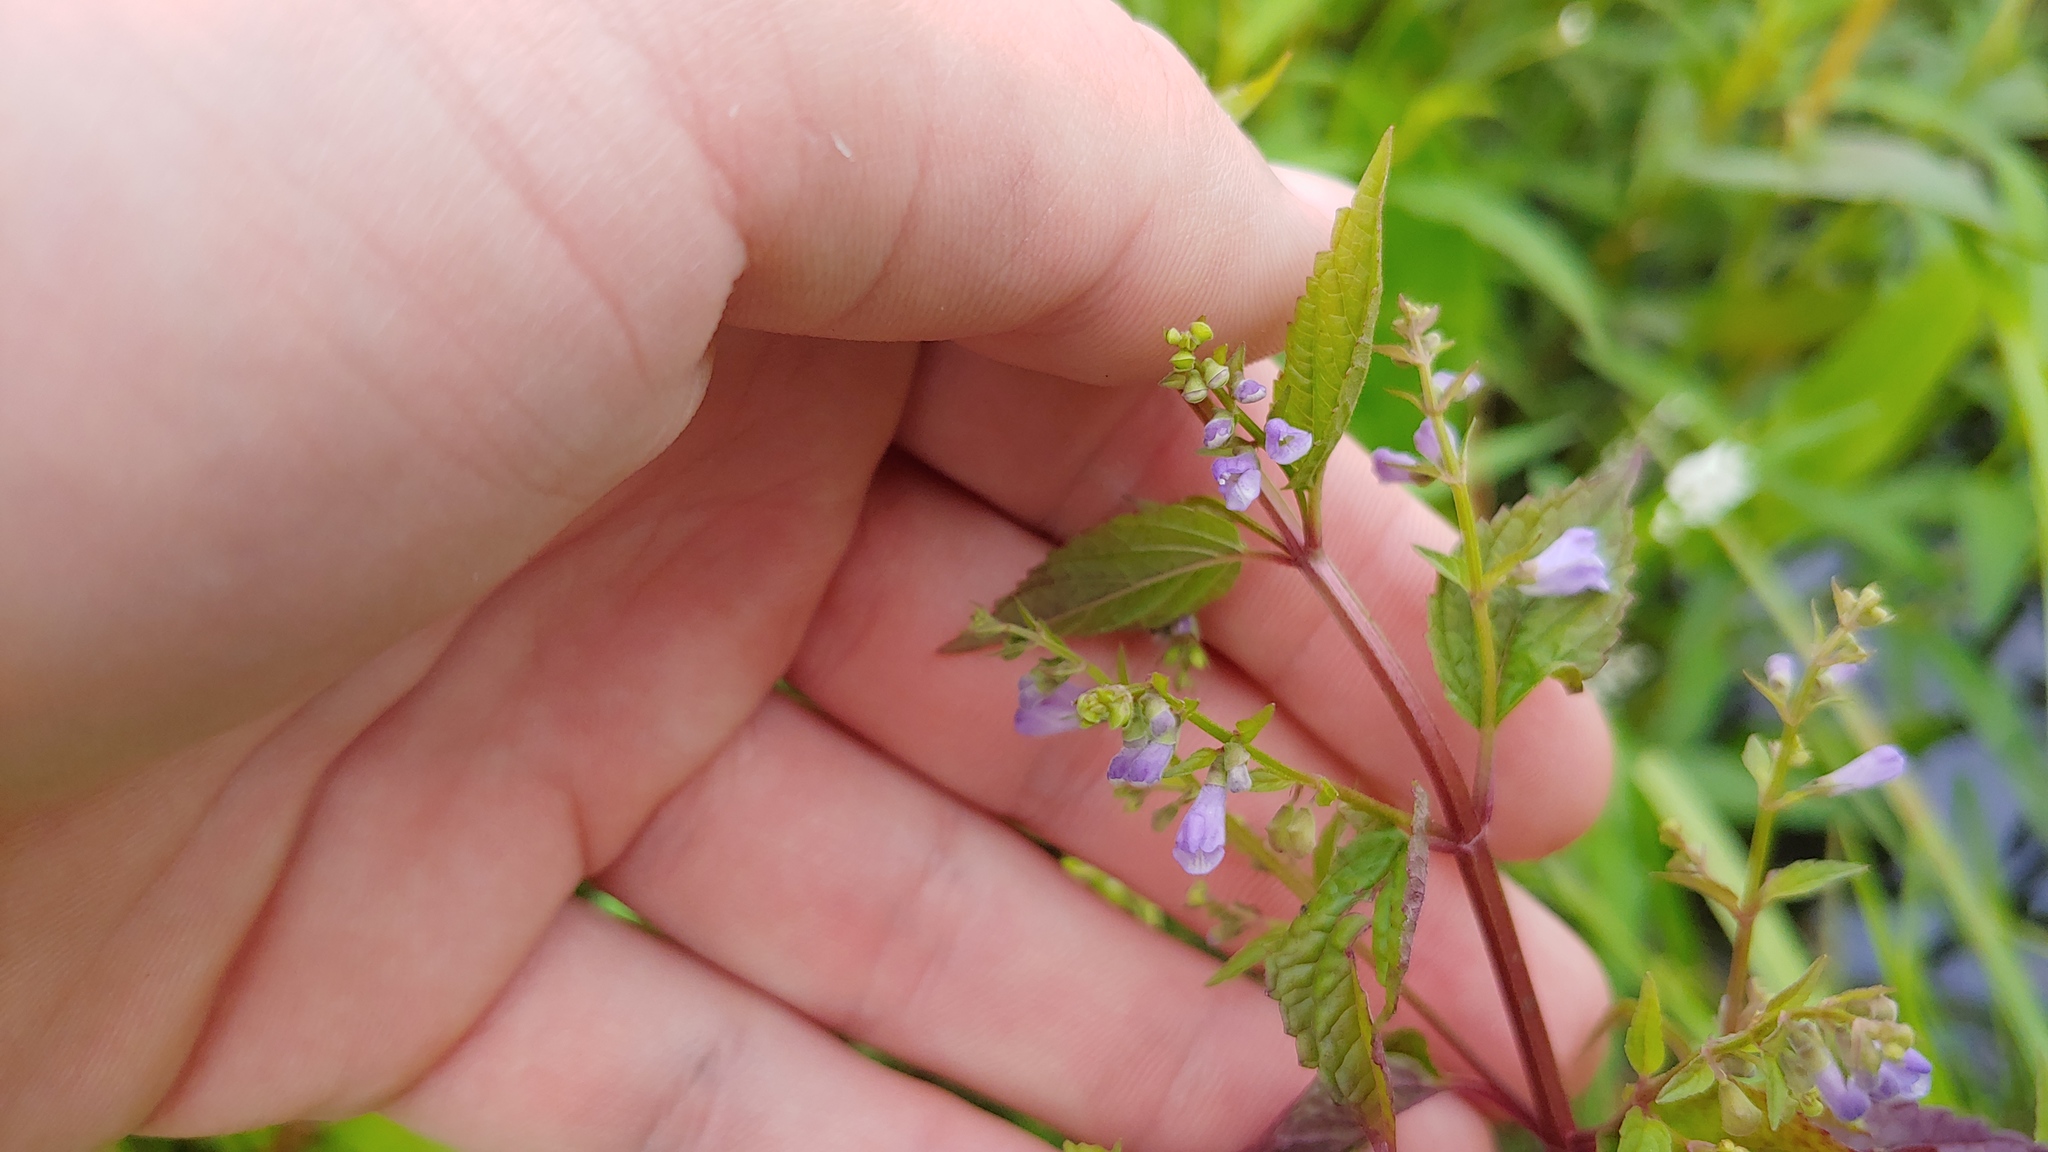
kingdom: Plantae
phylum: Tracheophyta
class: Magnoliopsida
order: Lamiales
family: Lamiaceae
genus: Scutellaria
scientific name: Scutellaria lateriflora
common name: Blue skullcap
